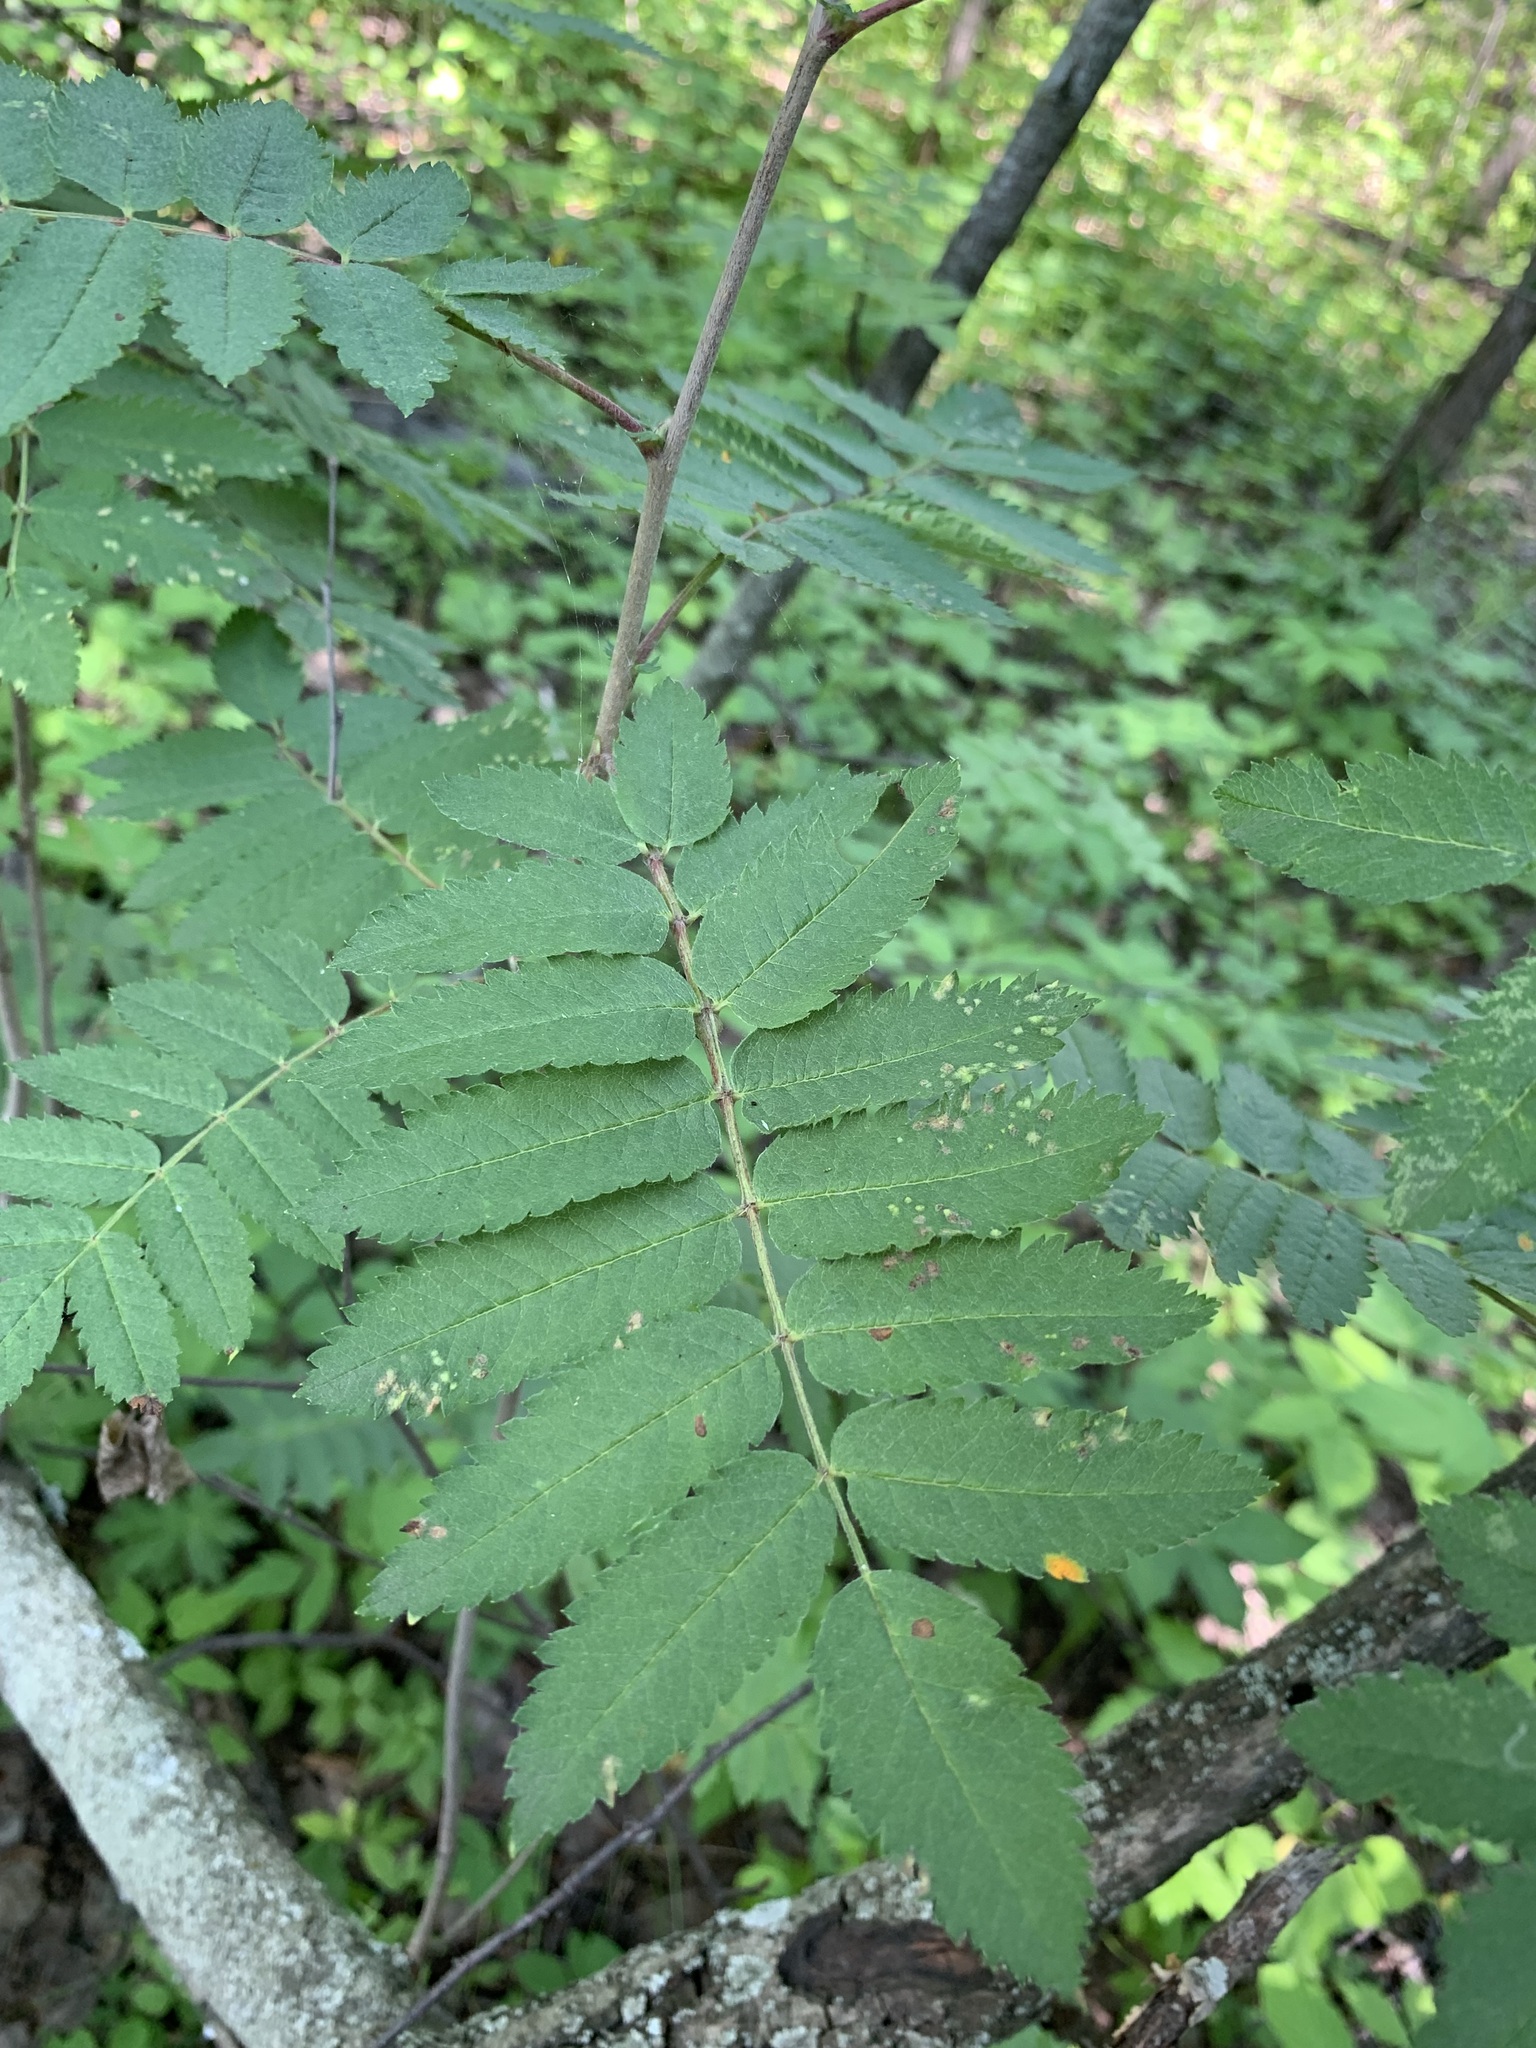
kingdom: Plantae
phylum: Tracheophyta
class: Magnoliopsida
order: Rosales
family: Rosaceae
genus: Sorbus
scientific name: Sorbus aucuparia
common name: Rowan
